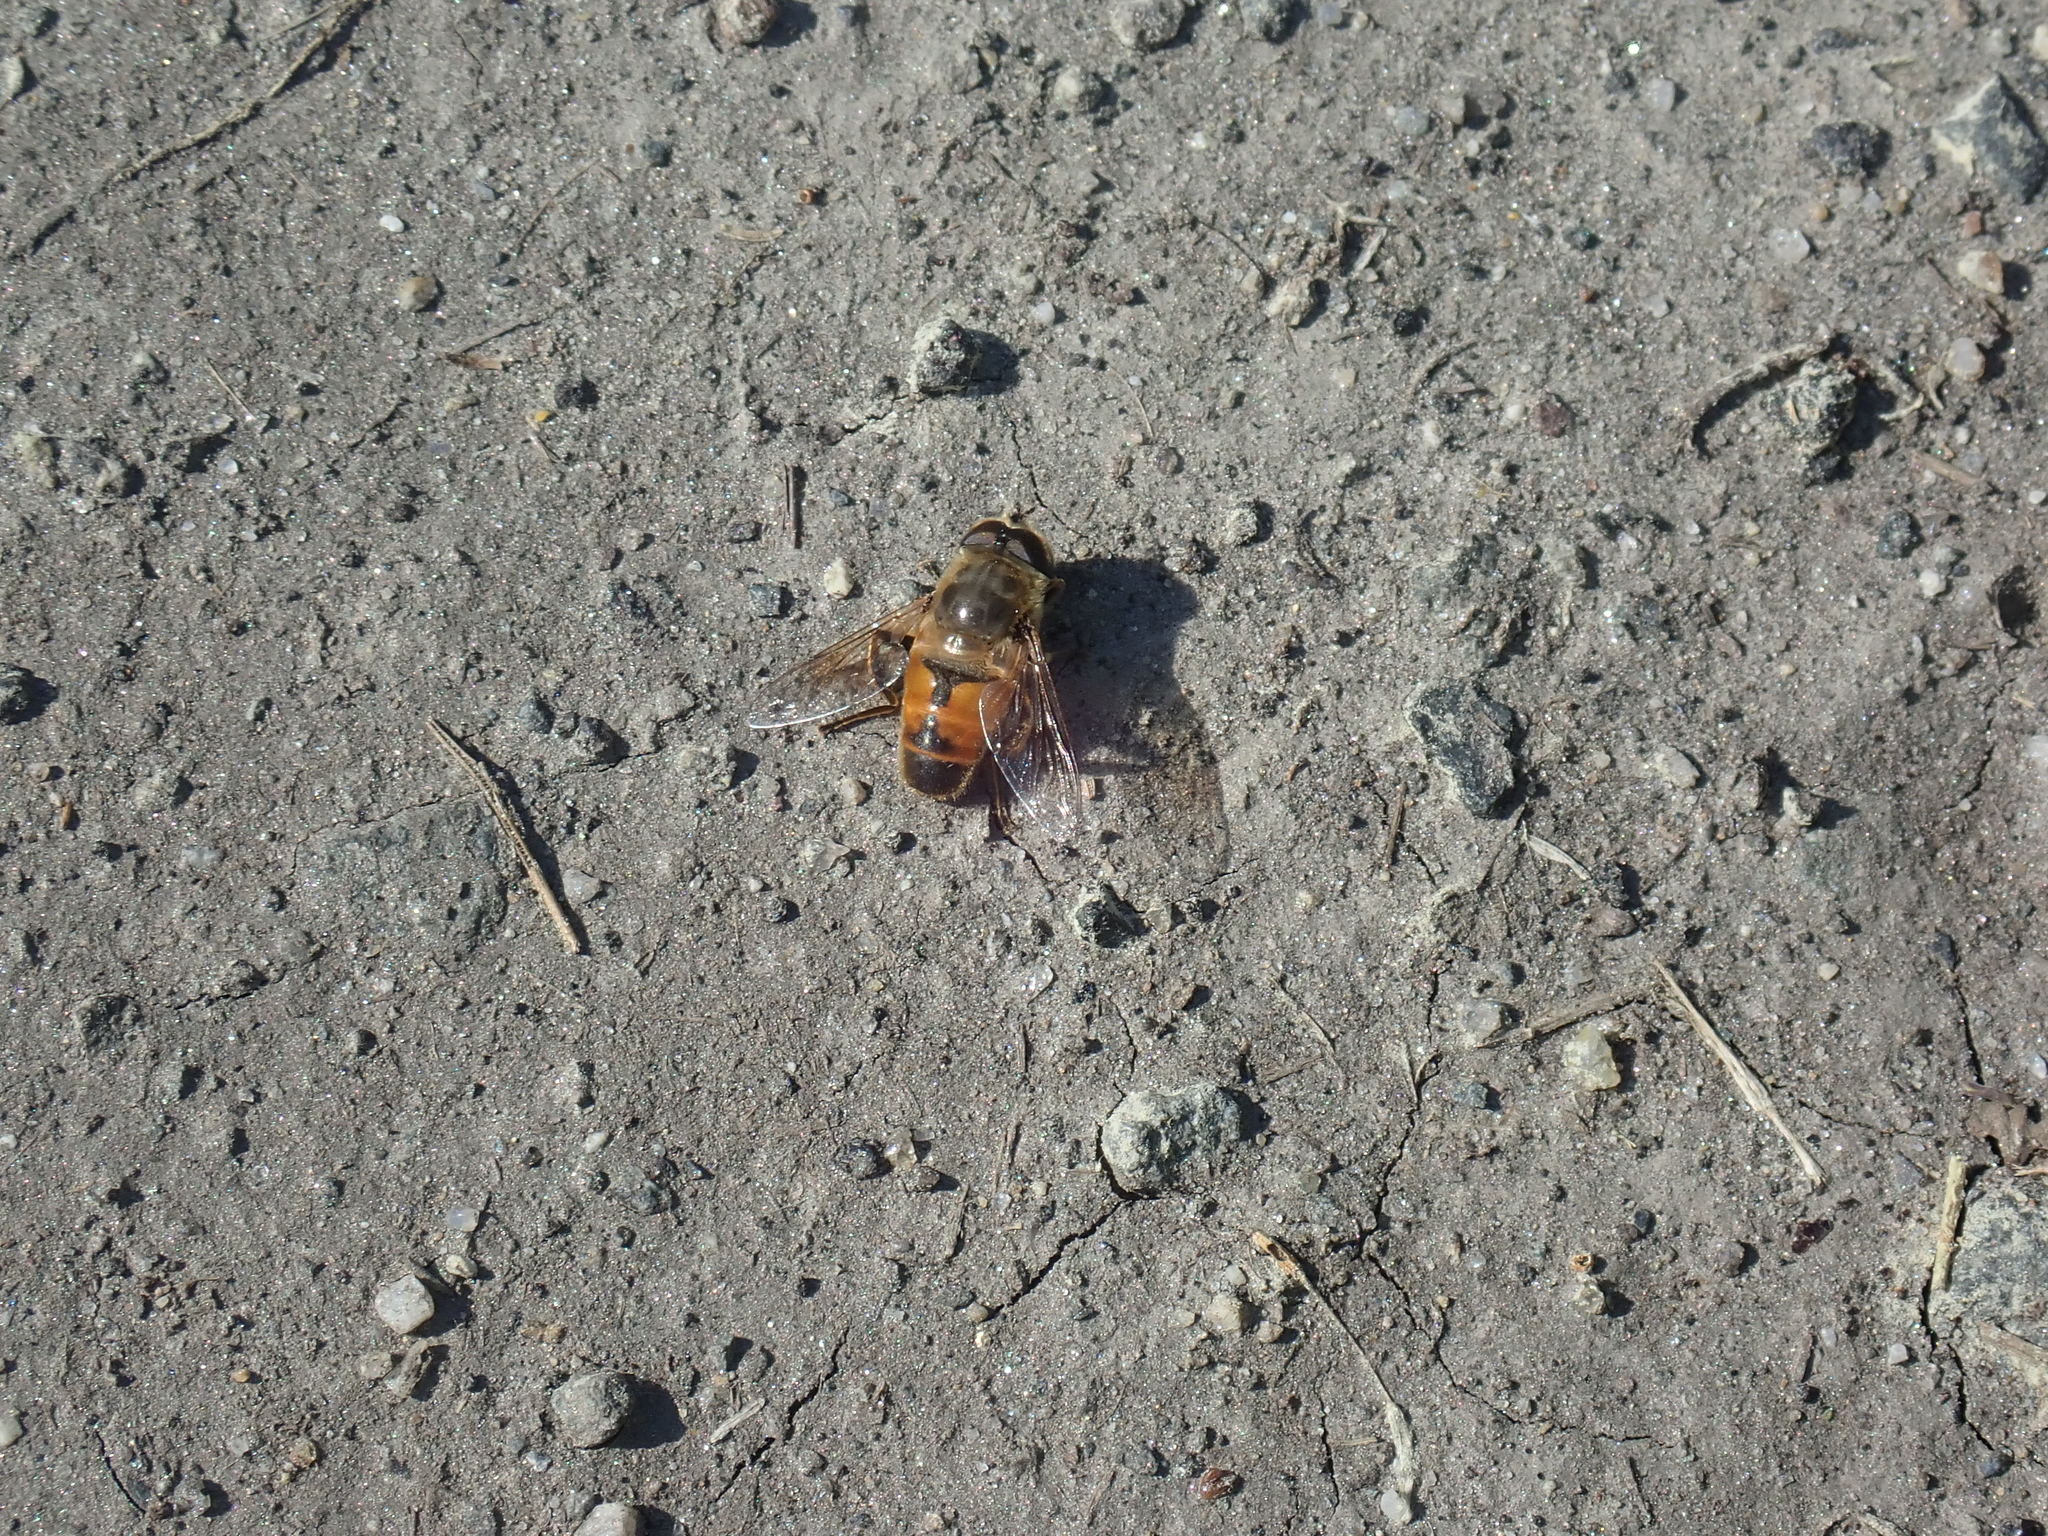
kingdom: Animalia
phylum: Arthropoda
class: Insecta
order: Diptera
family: Syrphidae
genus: Eristalis
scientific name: Eristalis tenax
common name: Drone fly
